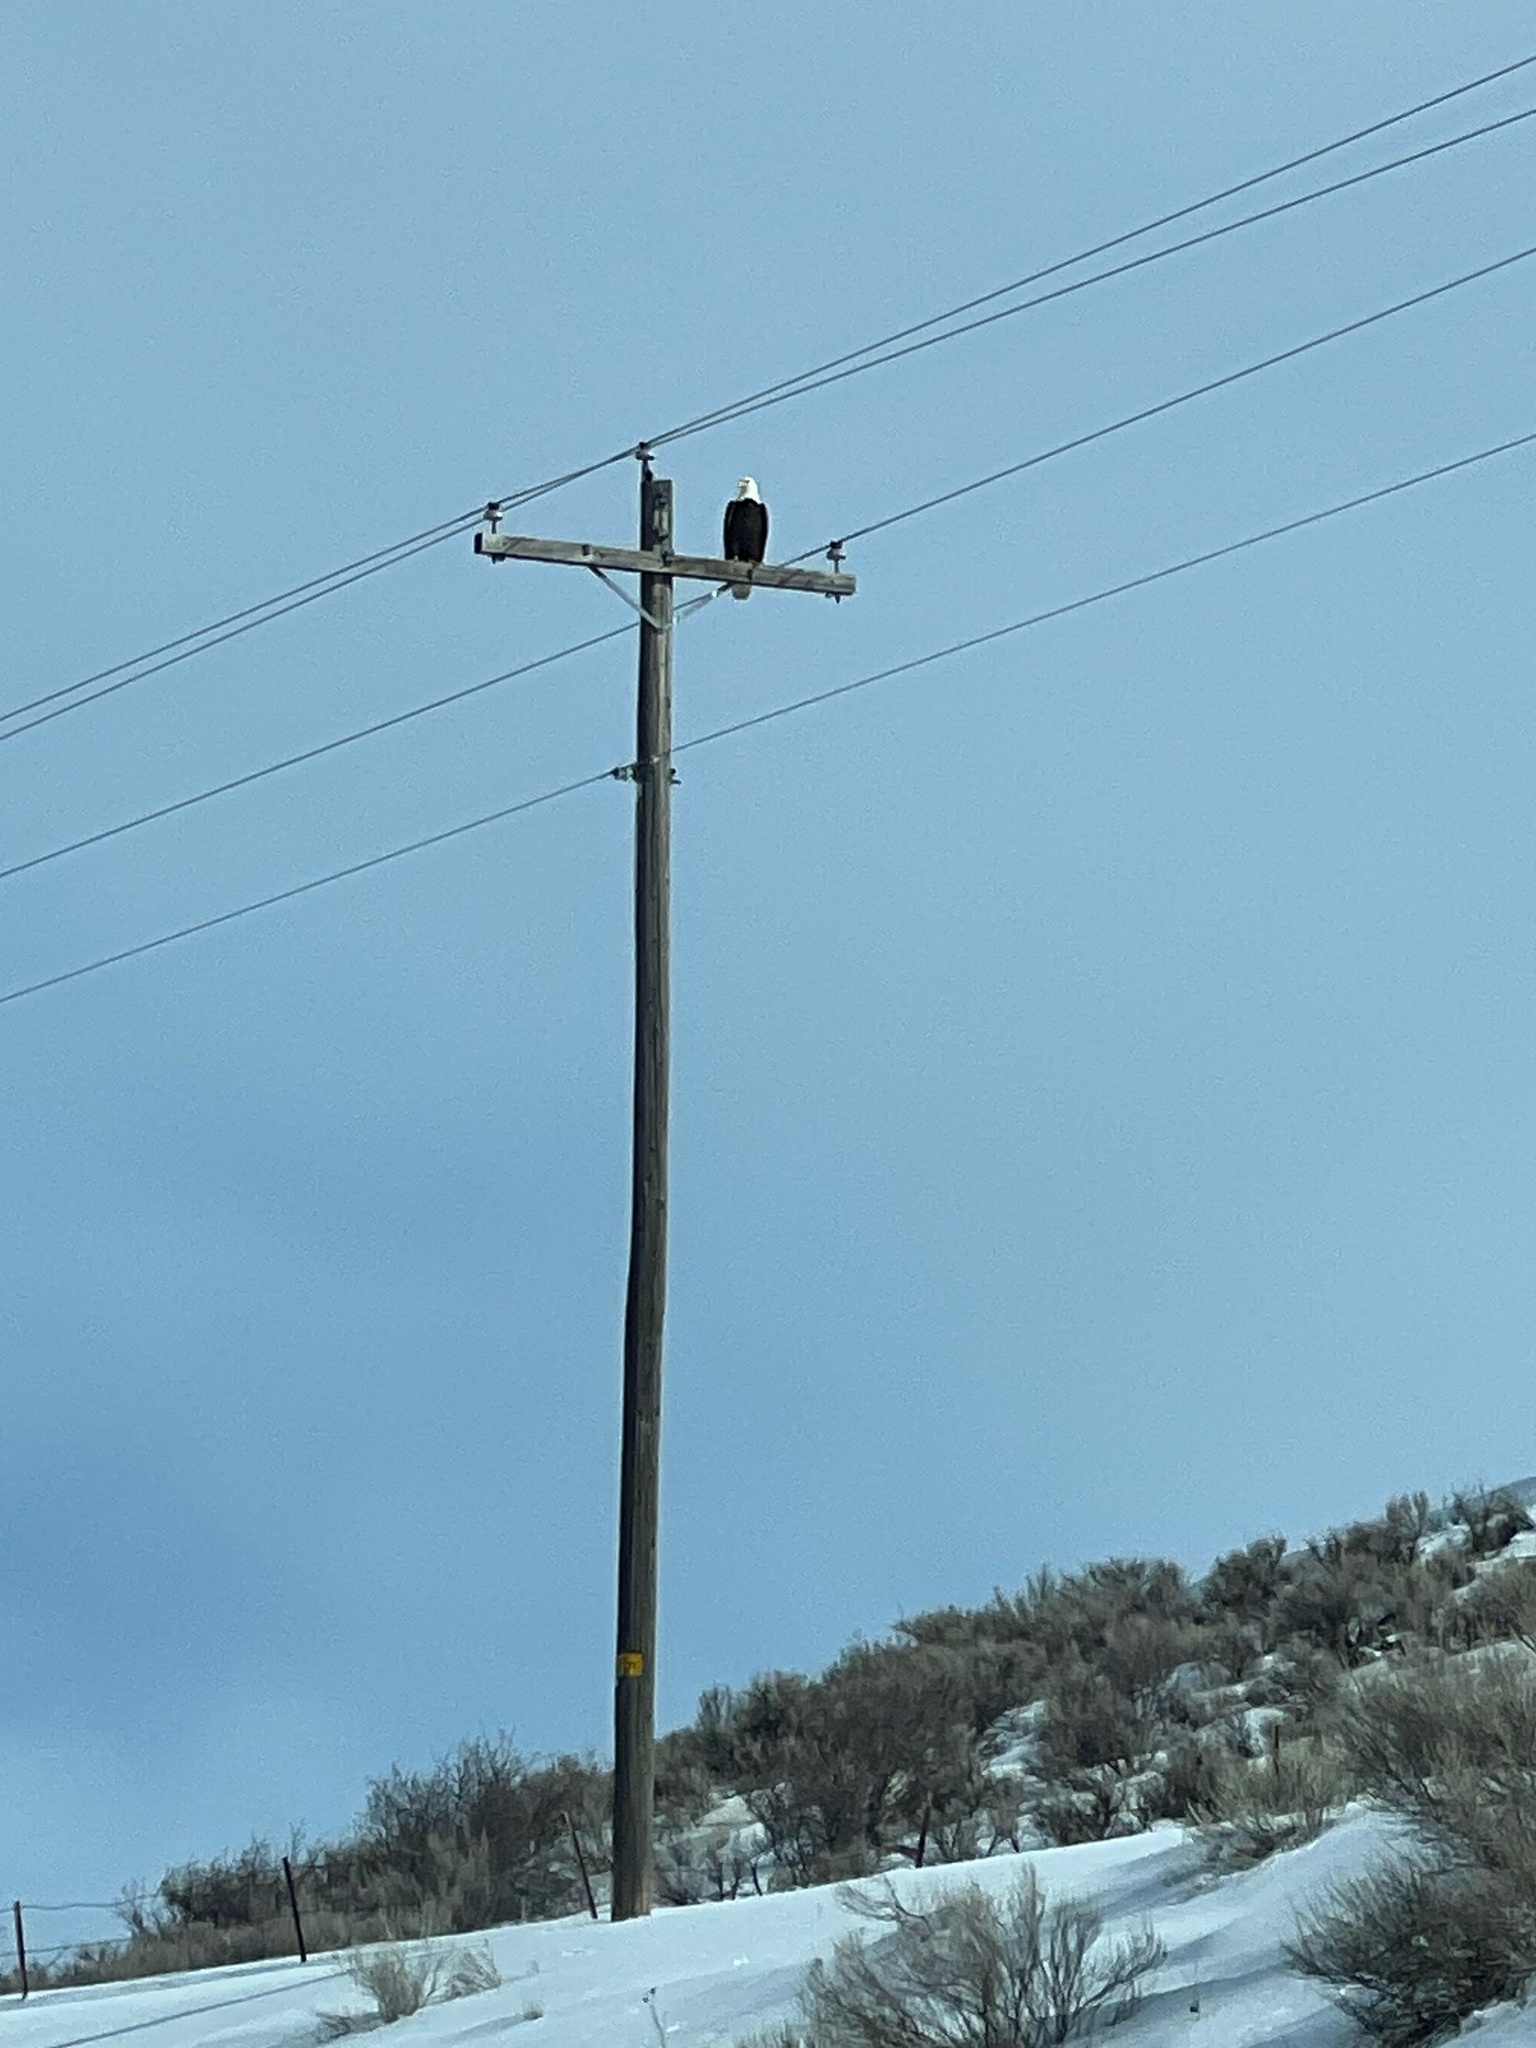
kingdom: Animalia
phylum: Chordata
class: Aves
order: Accipitriformes
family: Accipitridae
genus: Haliaeetus
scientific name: Haliaeetus leucocephalus
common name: Bald eagle
